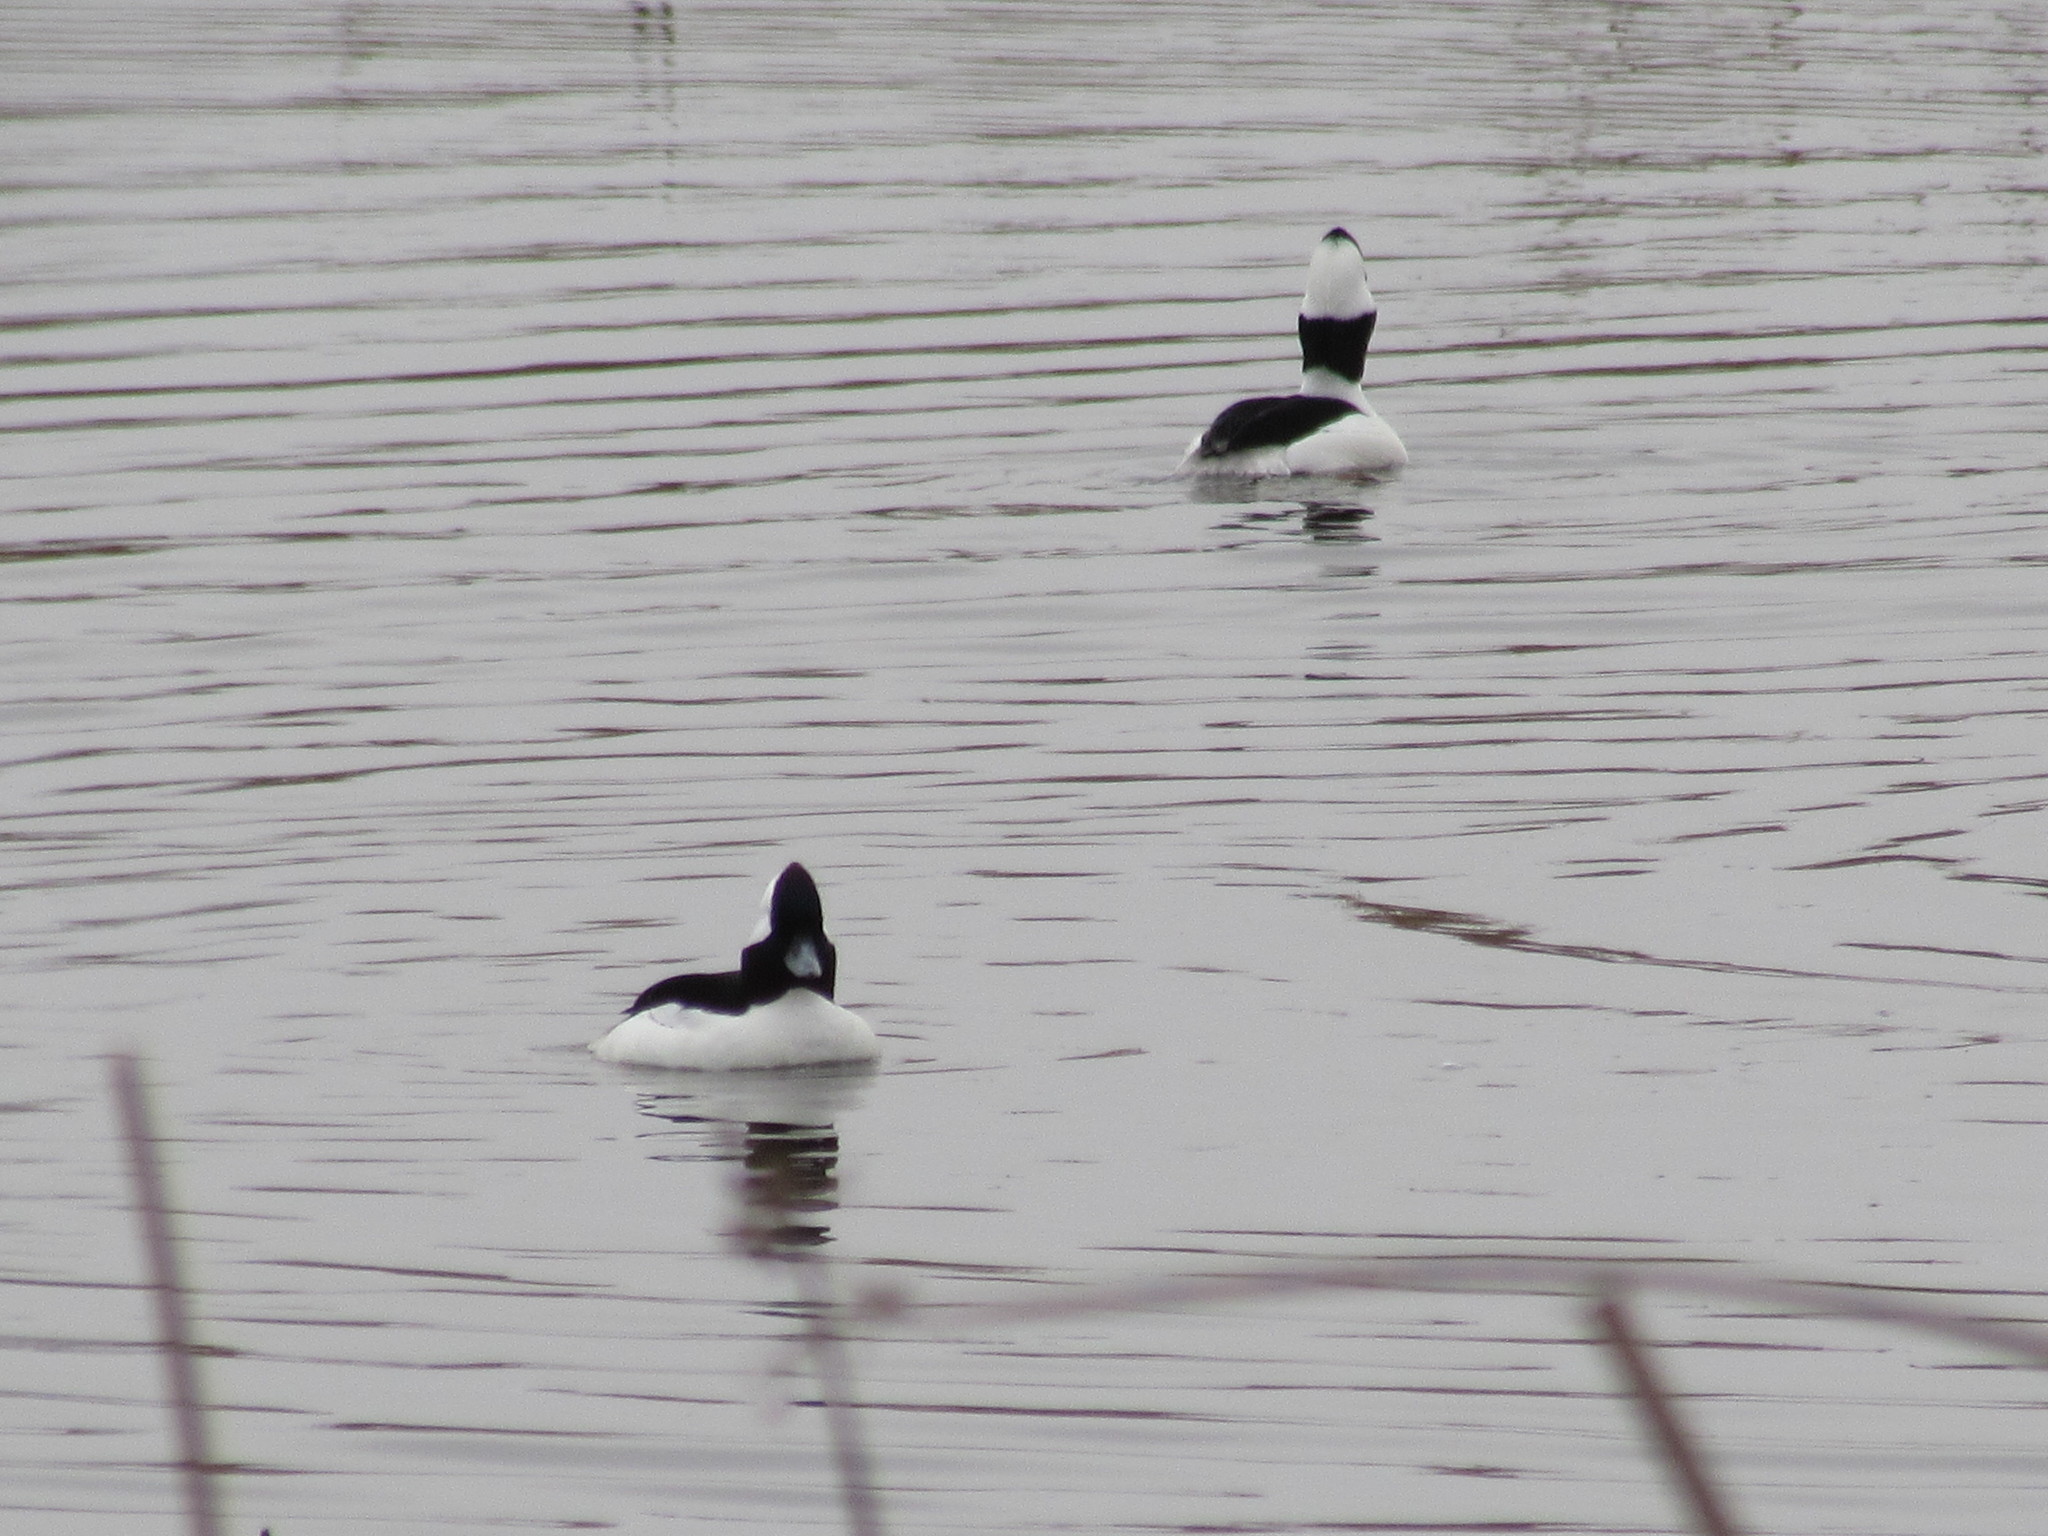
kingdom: Animalia
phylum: Chordata
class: Aves
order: Anseriformes
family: Anatidae
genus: Bucephala
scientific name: Bucephala albeola
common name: Bufflehead
